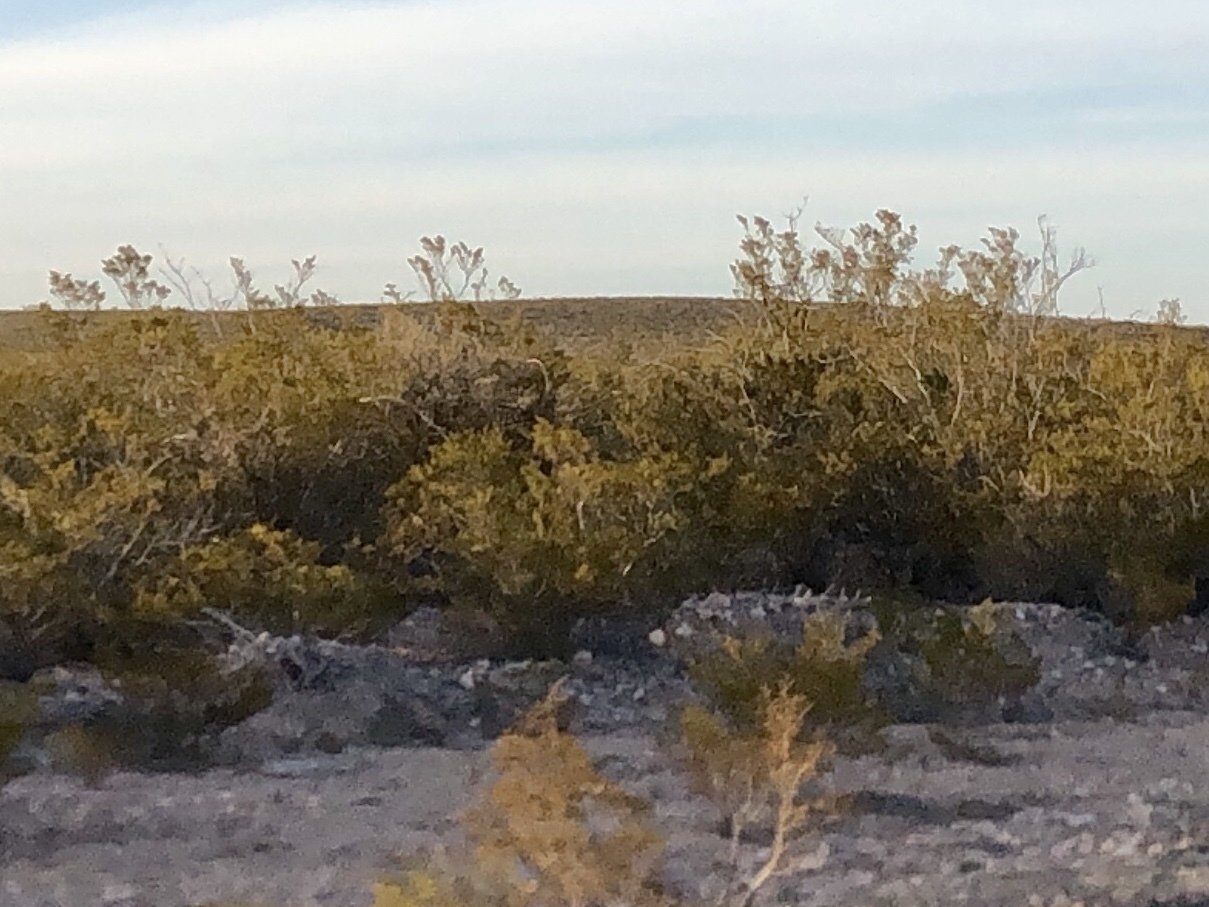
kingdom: Plantae
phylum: Tracheophyta
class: Magnoliopsida
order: Zygophyllales
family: Zygophyllaceae
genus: Larrea
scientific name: Larrea tridentata
